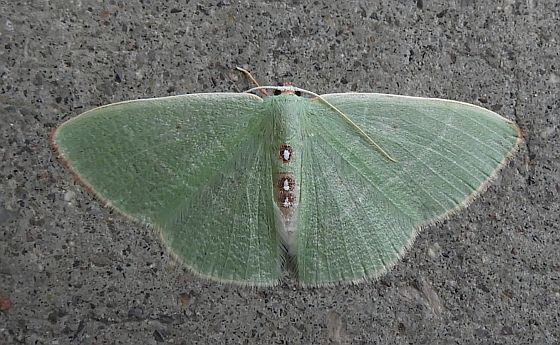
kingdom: Animalia
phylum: Arthropoda
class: Insecta
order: Lepidoptera
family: Geometridae
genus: Nemoria
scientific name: Nemoria darwiniata
